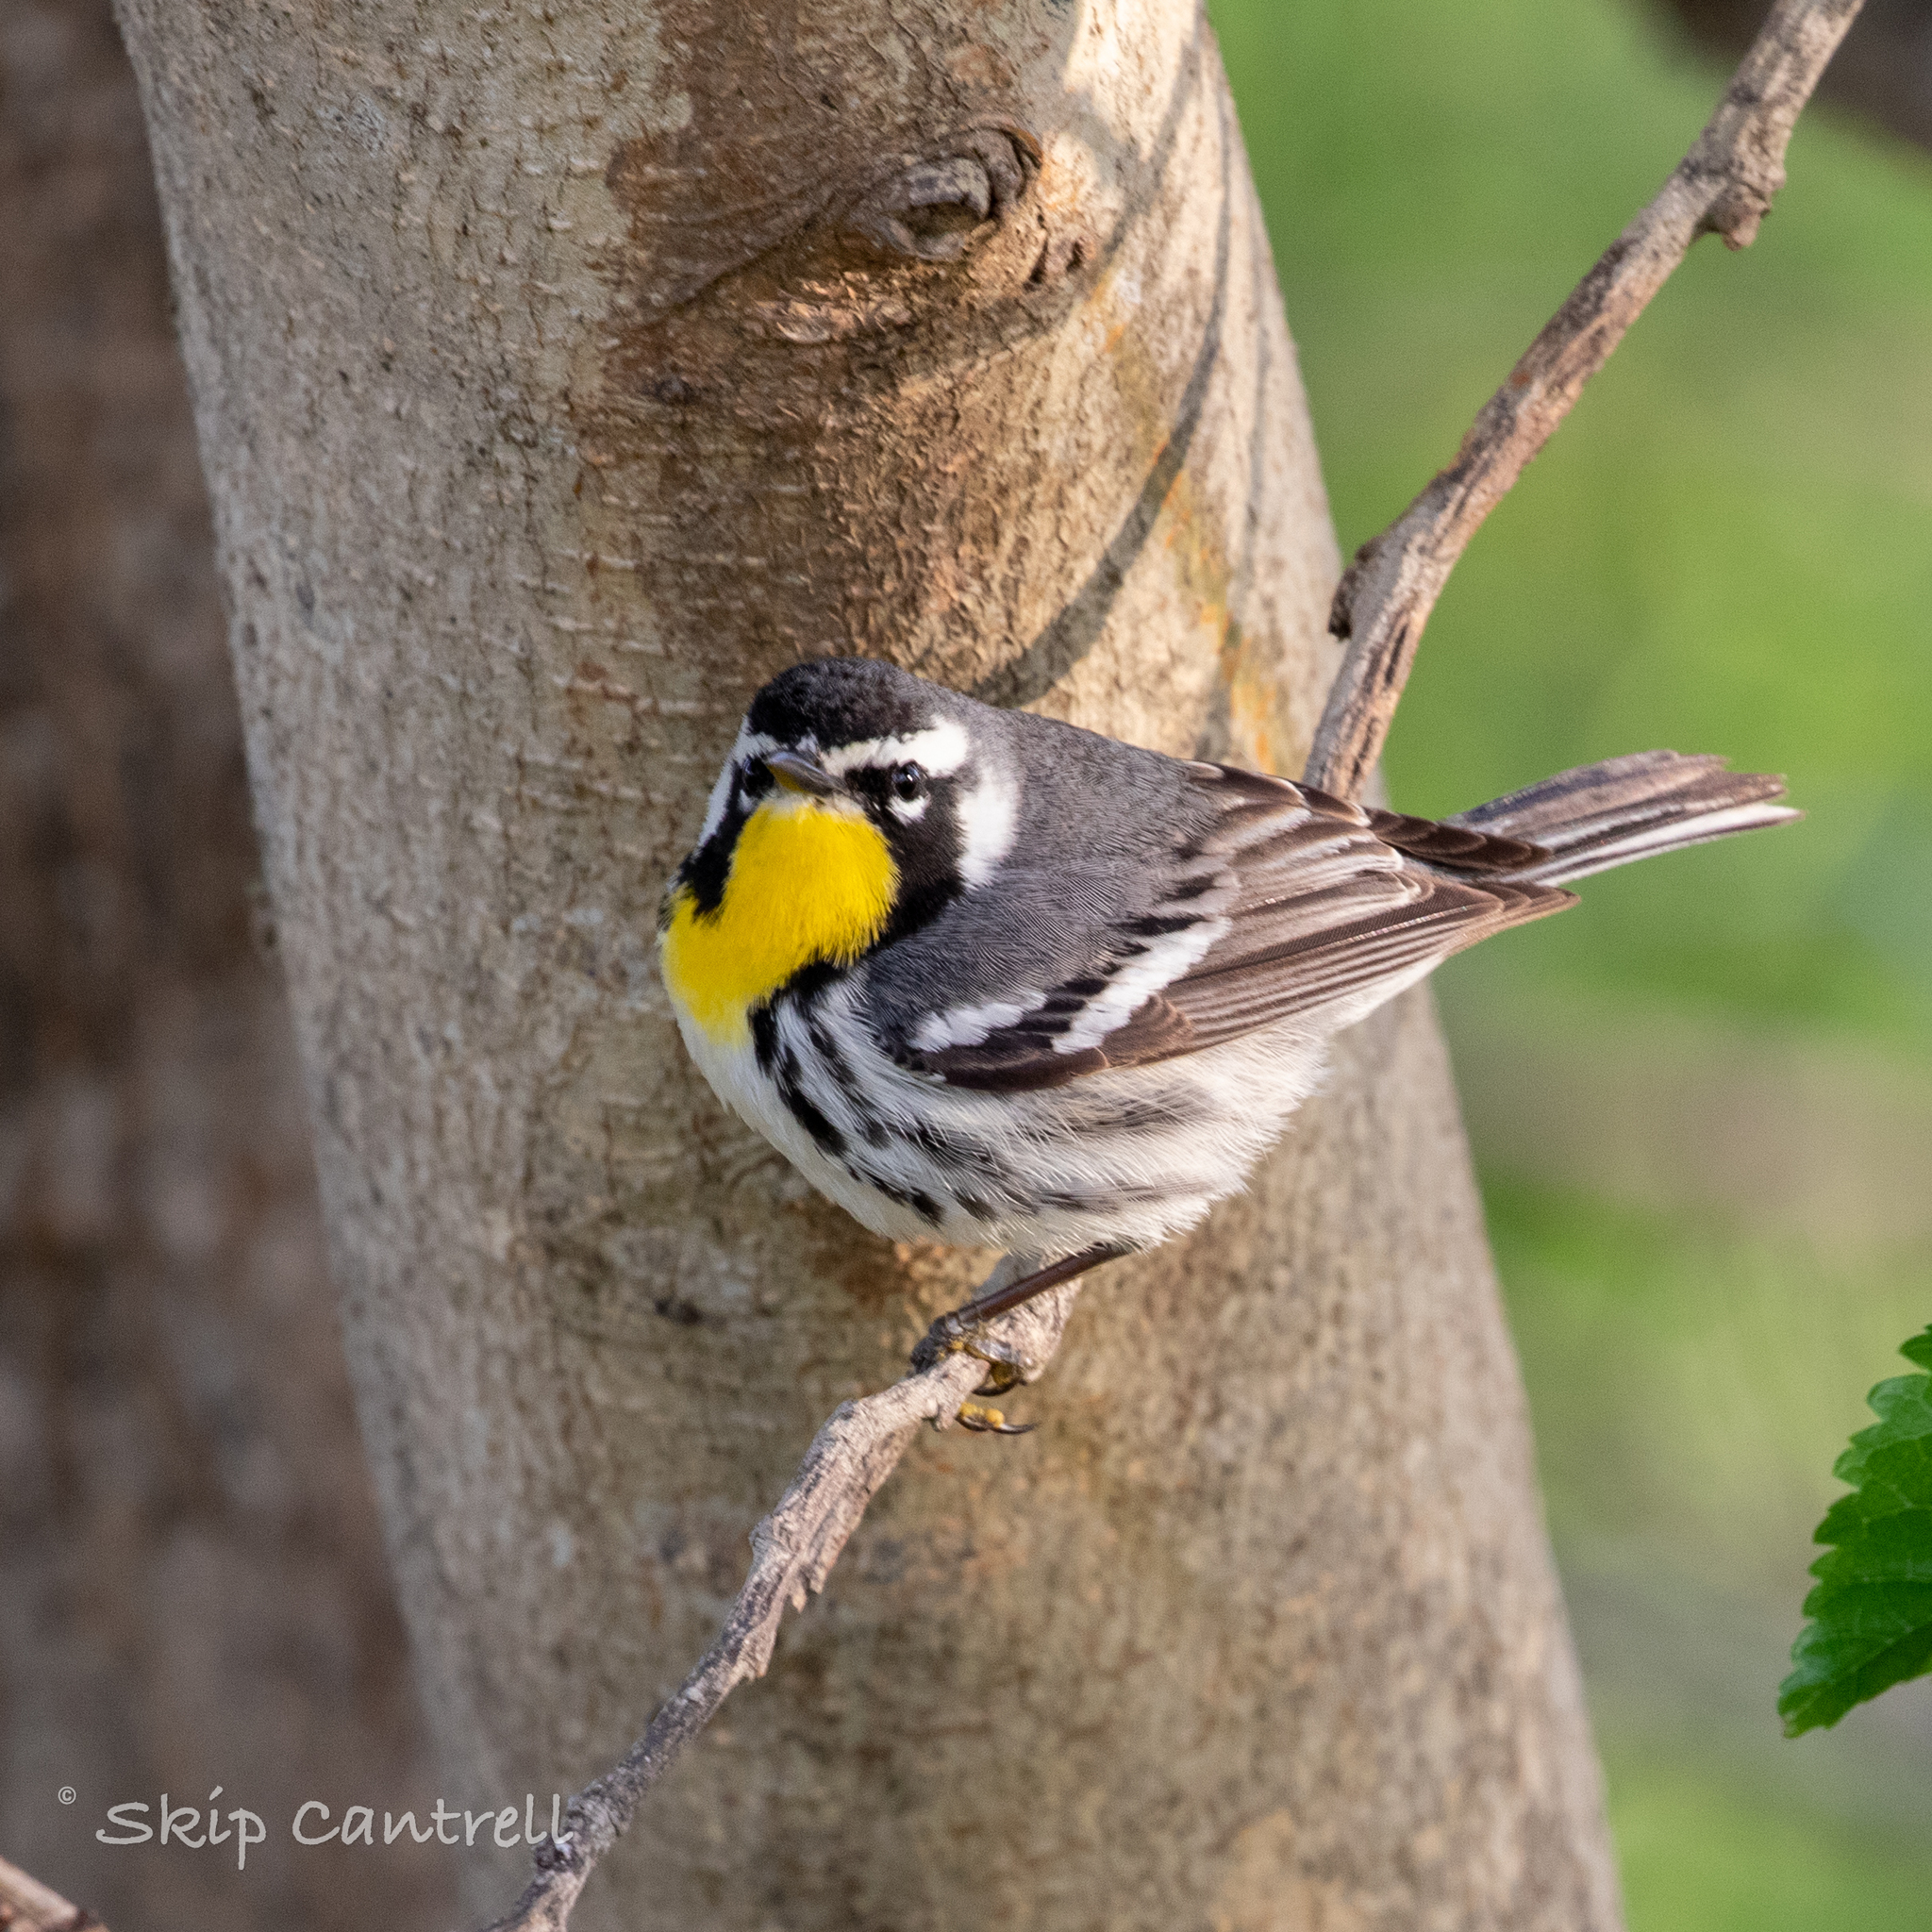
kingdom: Animalia
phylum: Chordata
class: Aves
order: Passeriformes
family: Parulidae
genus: Setophaga
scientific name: Setophaga dominica
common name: Yellow-throated warbler
